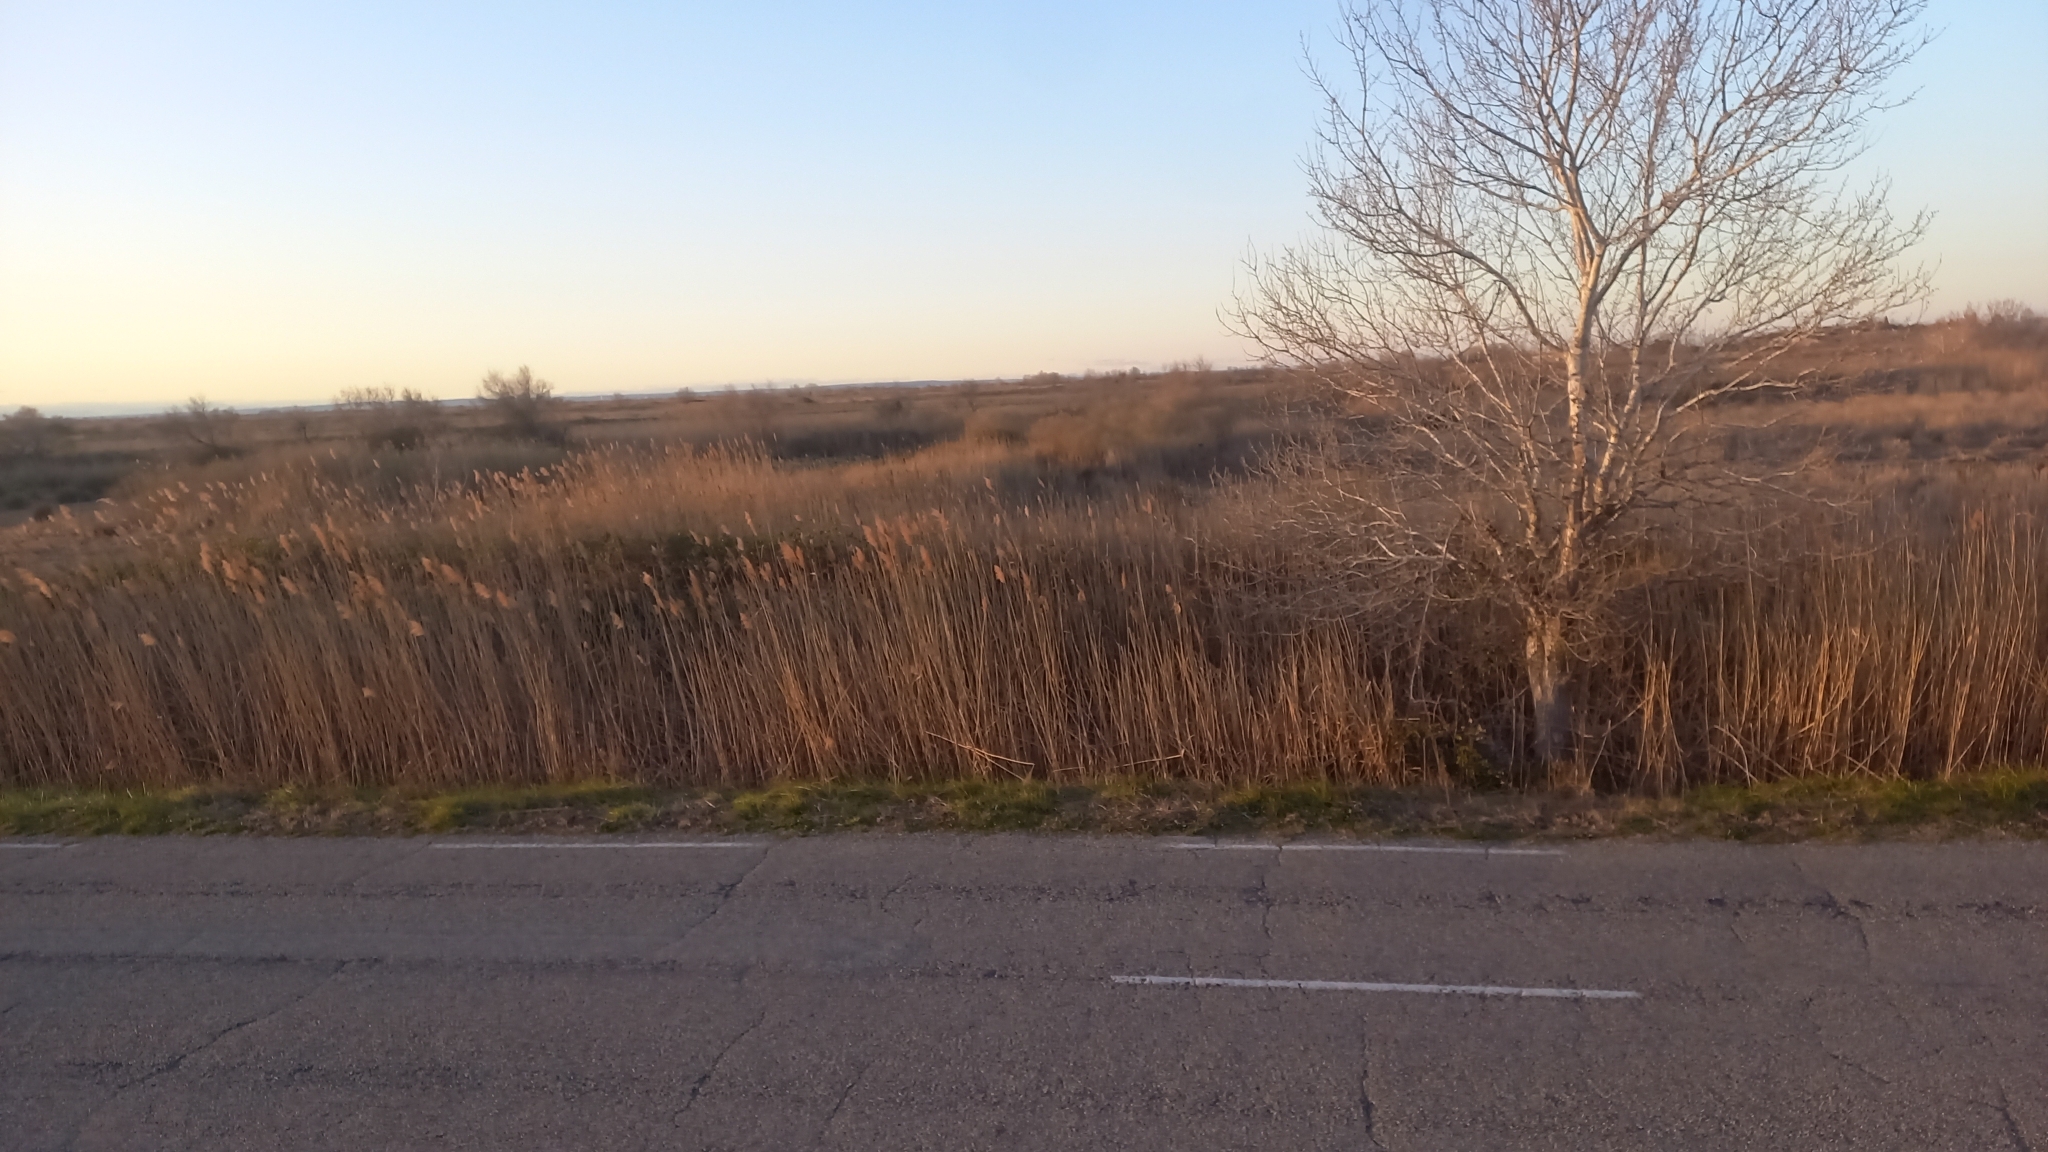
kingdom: Plantae
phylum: Tracheophyta
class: Liliopsida
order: Poales
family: Poaceae
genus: Phragmites
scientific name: Phragmites australis
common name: Common reed
